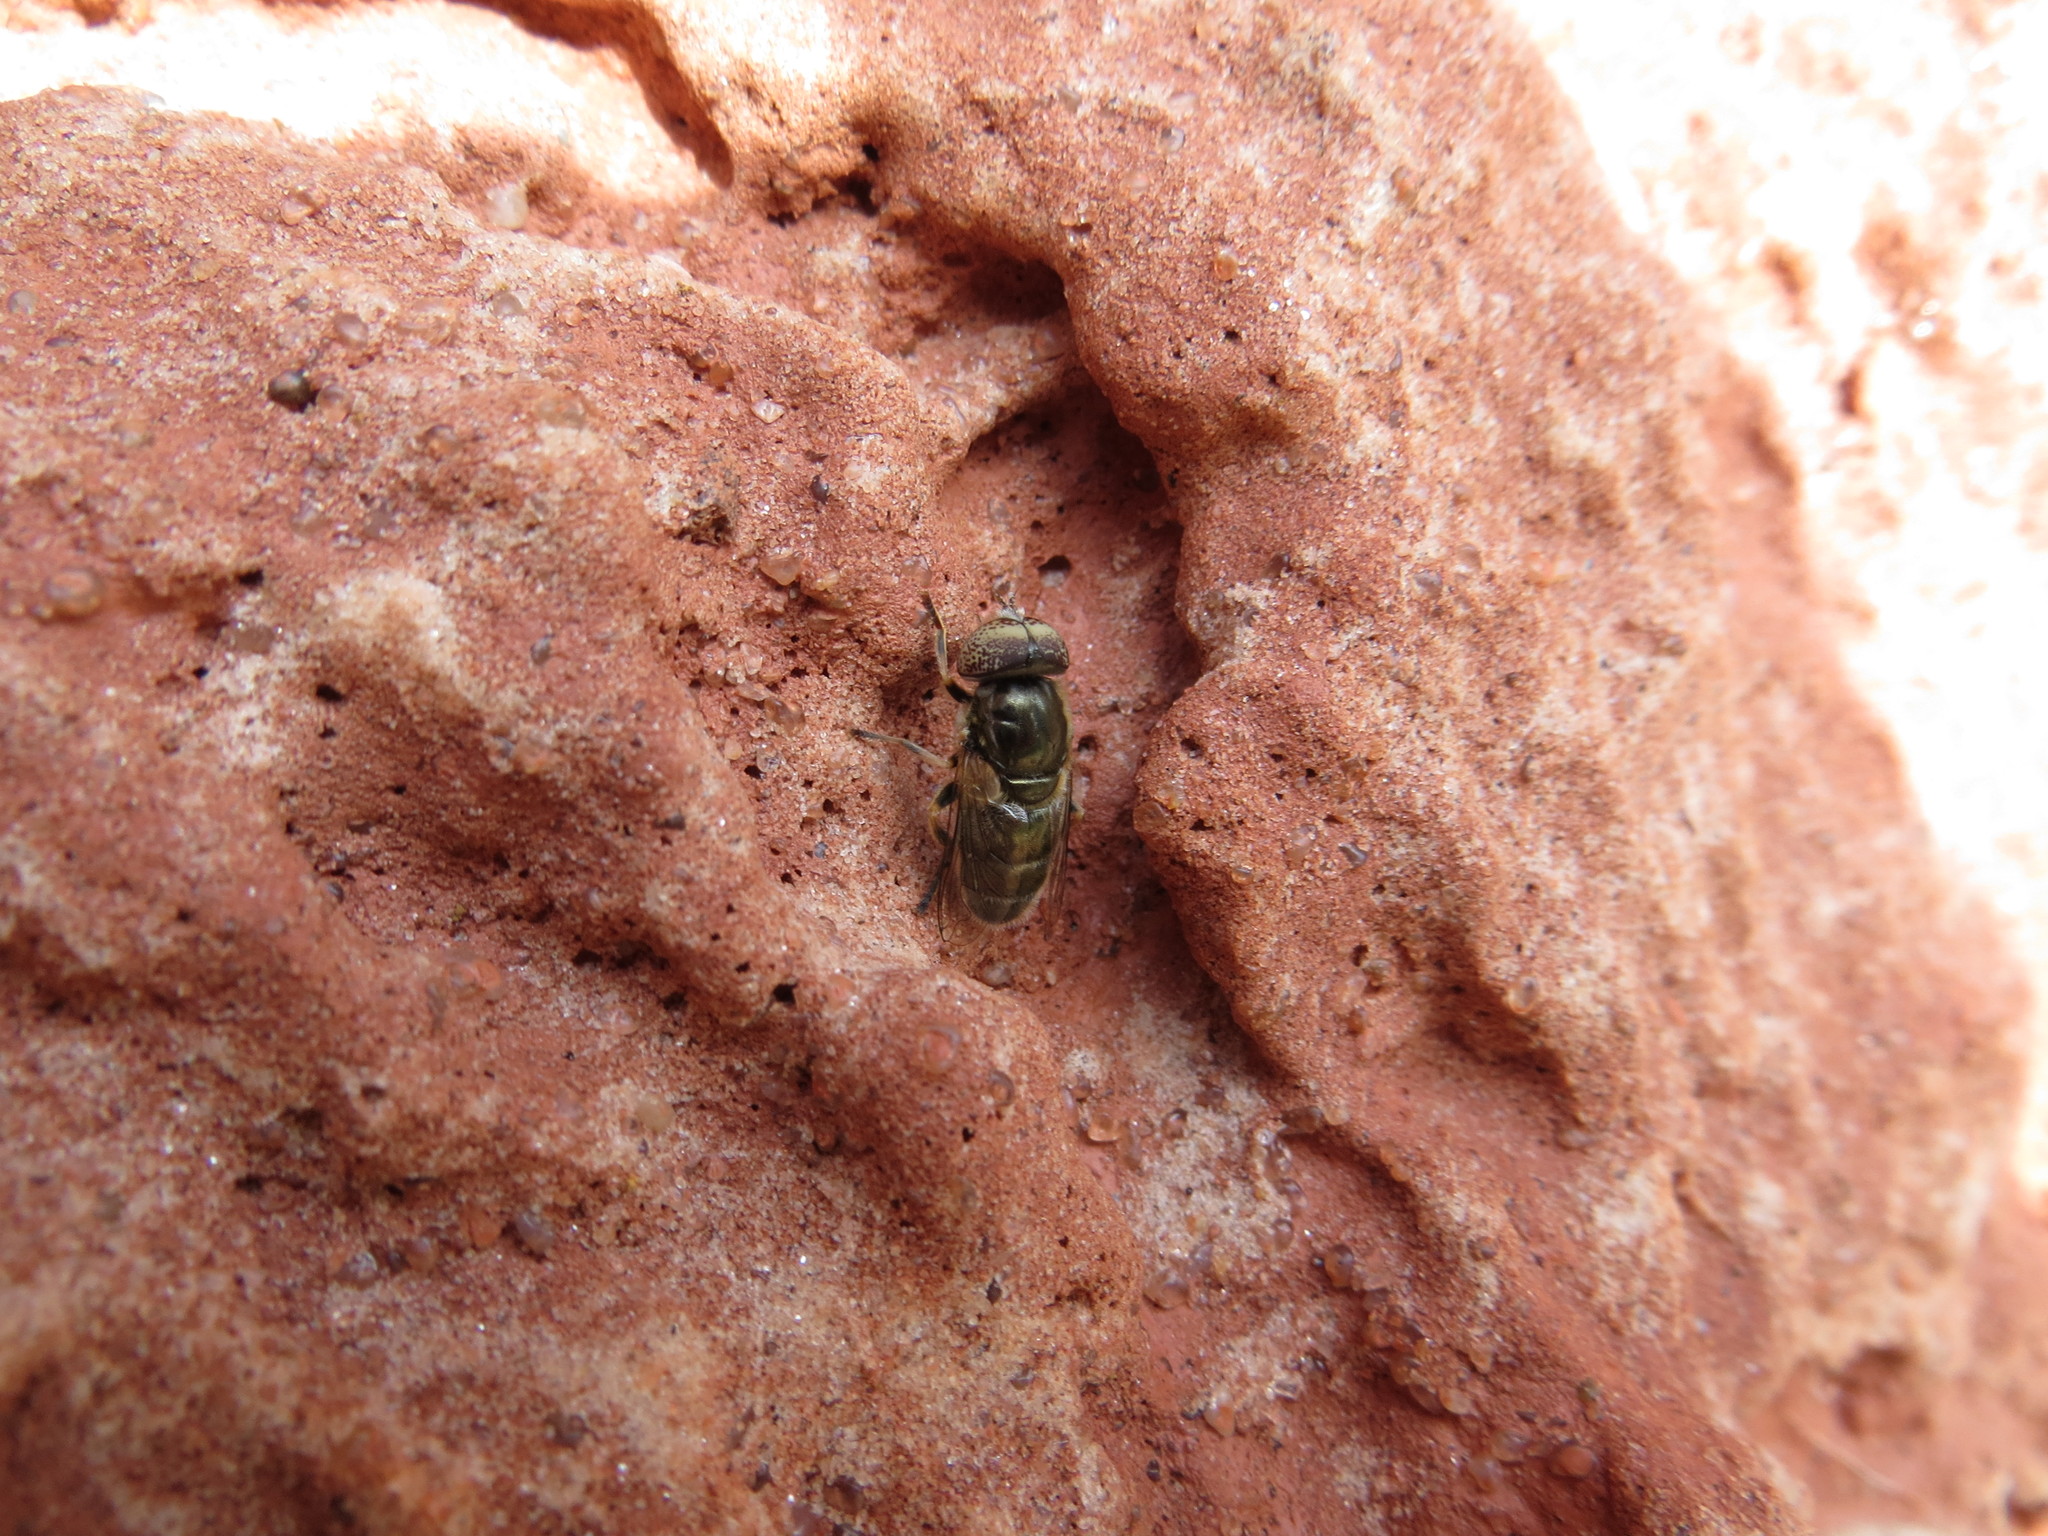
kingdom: Animalia
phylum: Arthropoda
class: Insecta
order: Diptera
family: Syrphidae
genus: Eristalinus
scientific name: Eristalinus aeneus
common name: Syrphid fly
